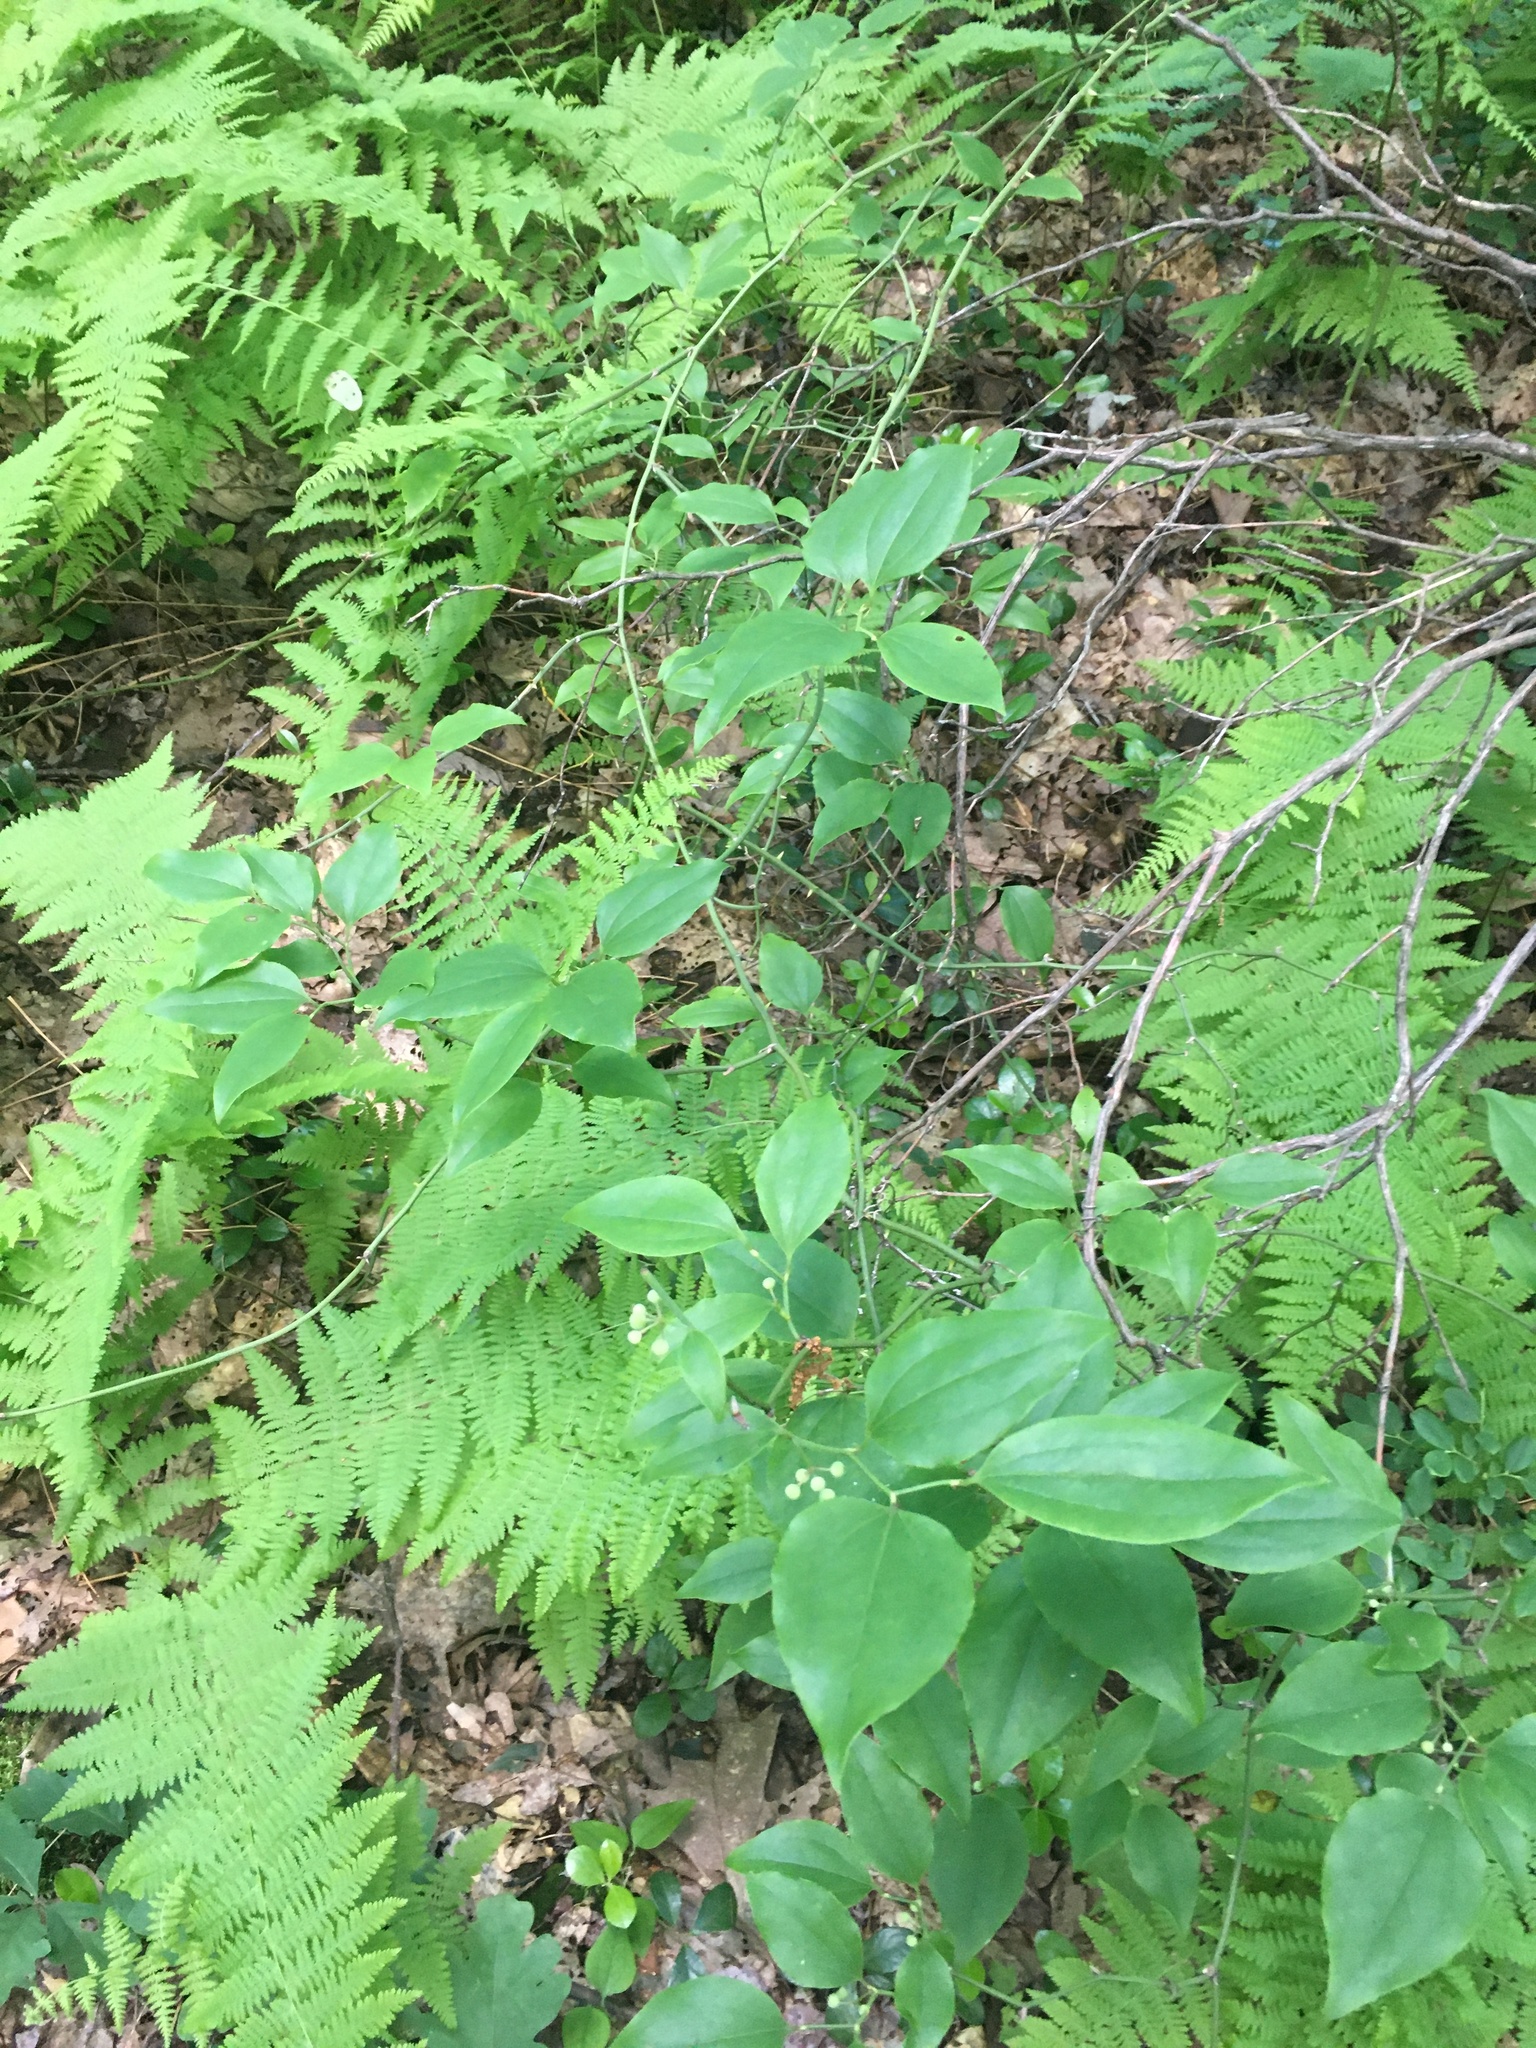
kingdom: Plantae
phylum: Tracheophyta
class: Liliopsida
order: Liliales
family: Smilacaceae
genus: Smilax
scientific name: Smilax rotundifolia
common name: Bullbriar
